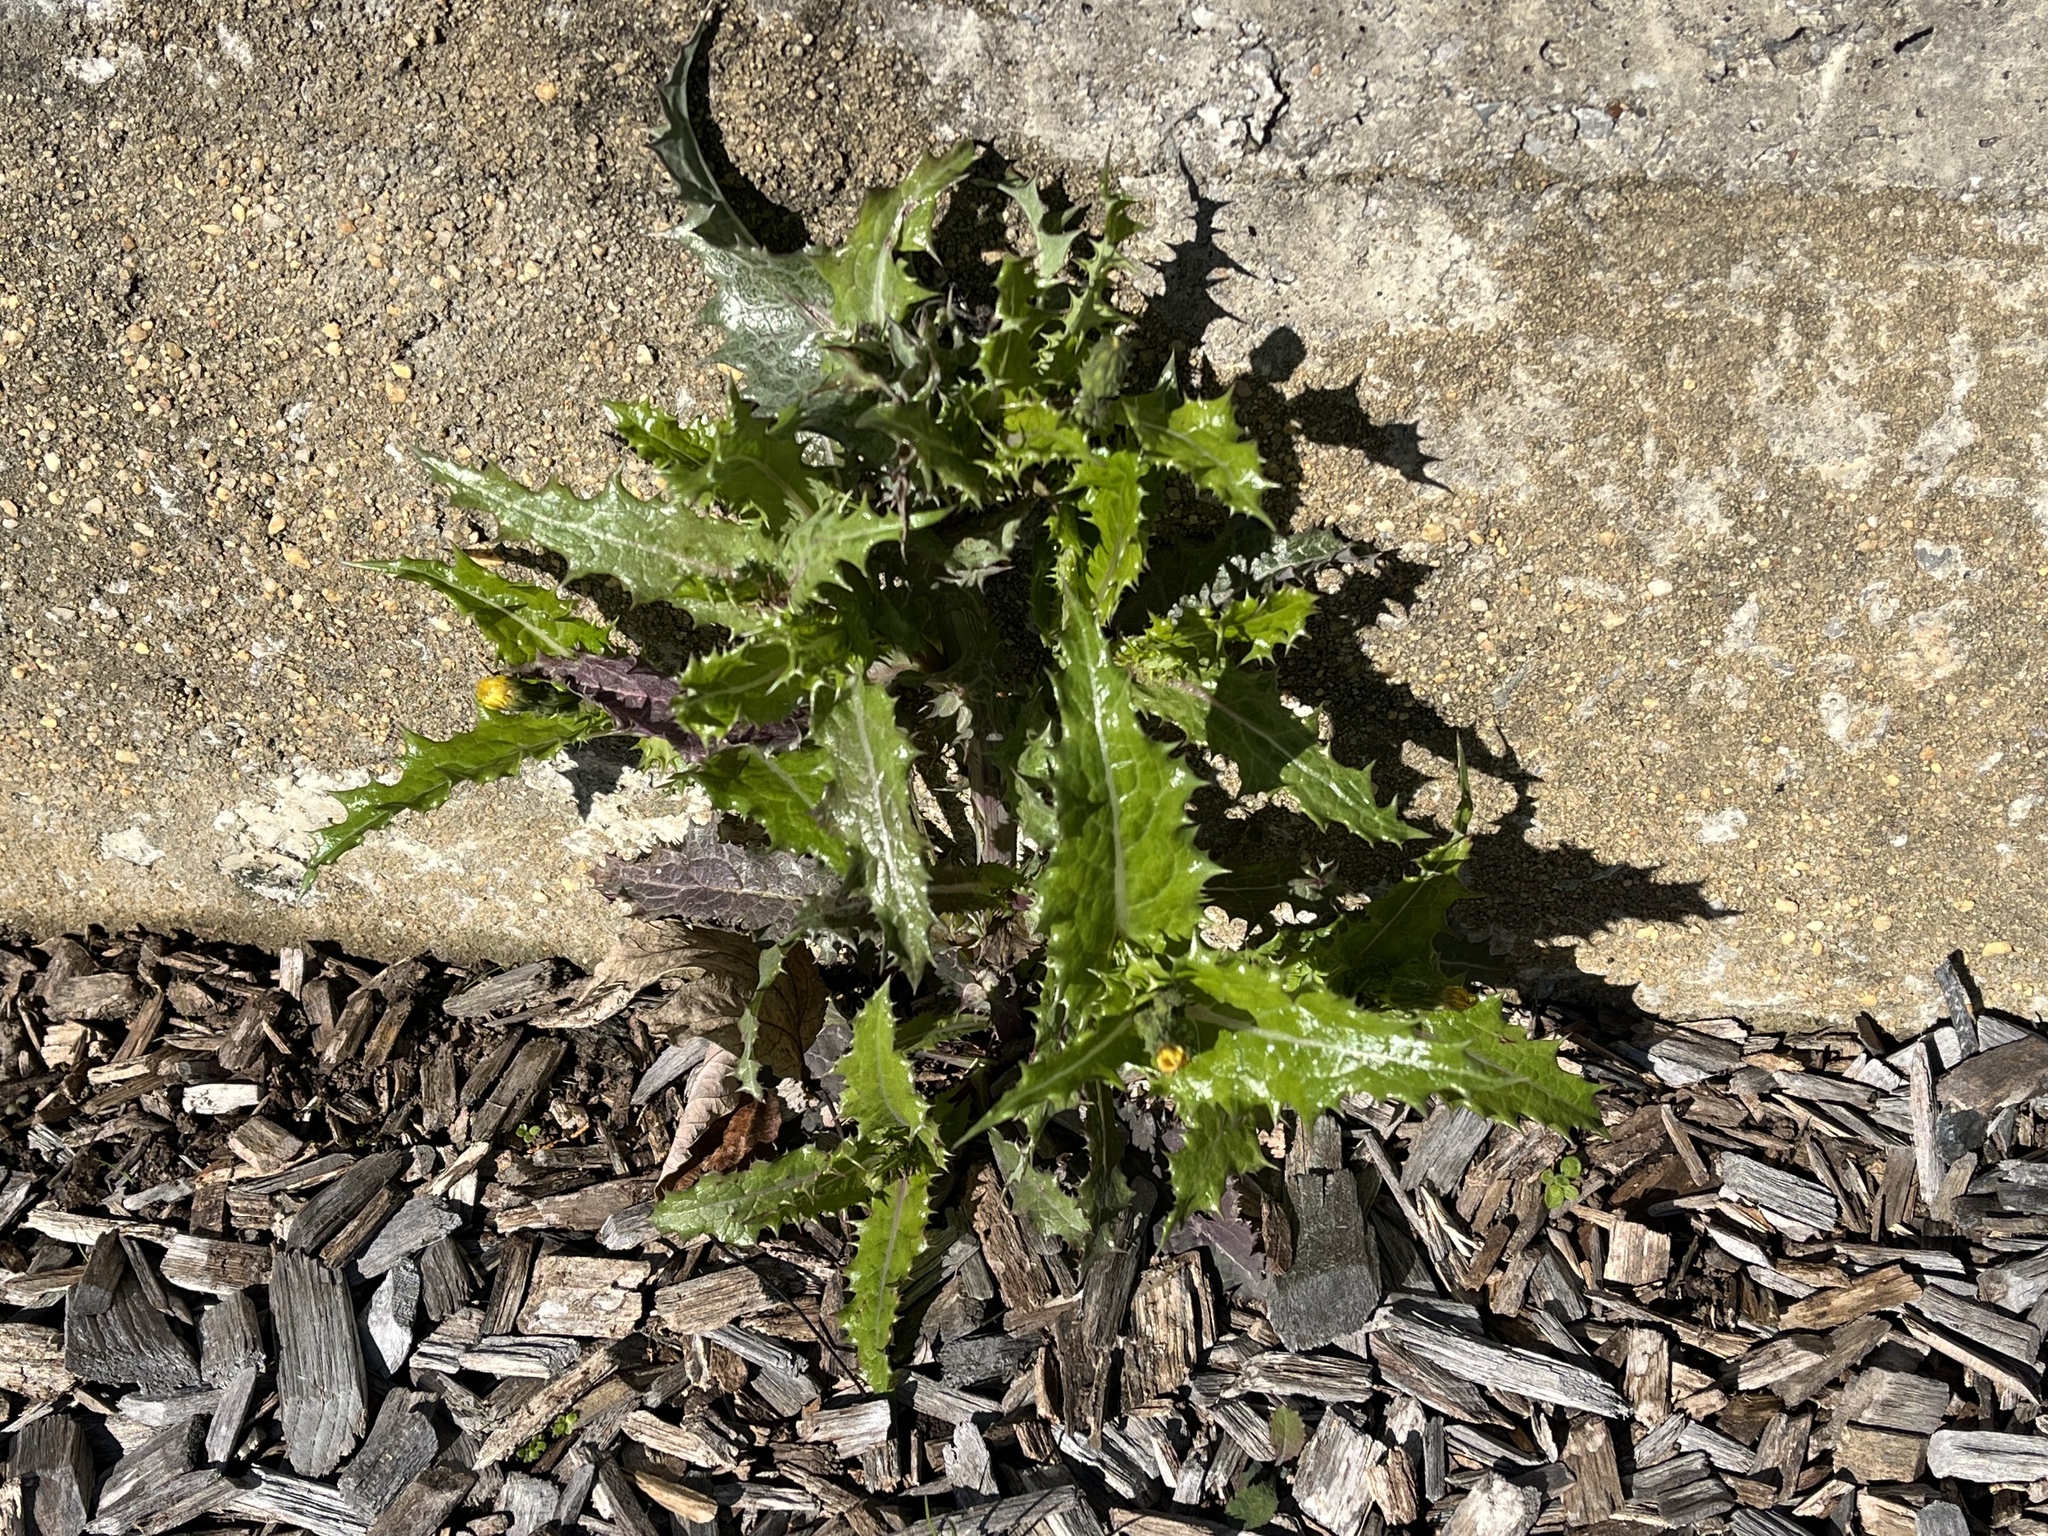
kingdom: Plantae
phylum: Tracheophyta
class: Magnoliopsida
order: Asterales
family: Asteraceae
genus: Sonchus
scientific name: Sonchus asper
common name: Prickly sow-thistle
